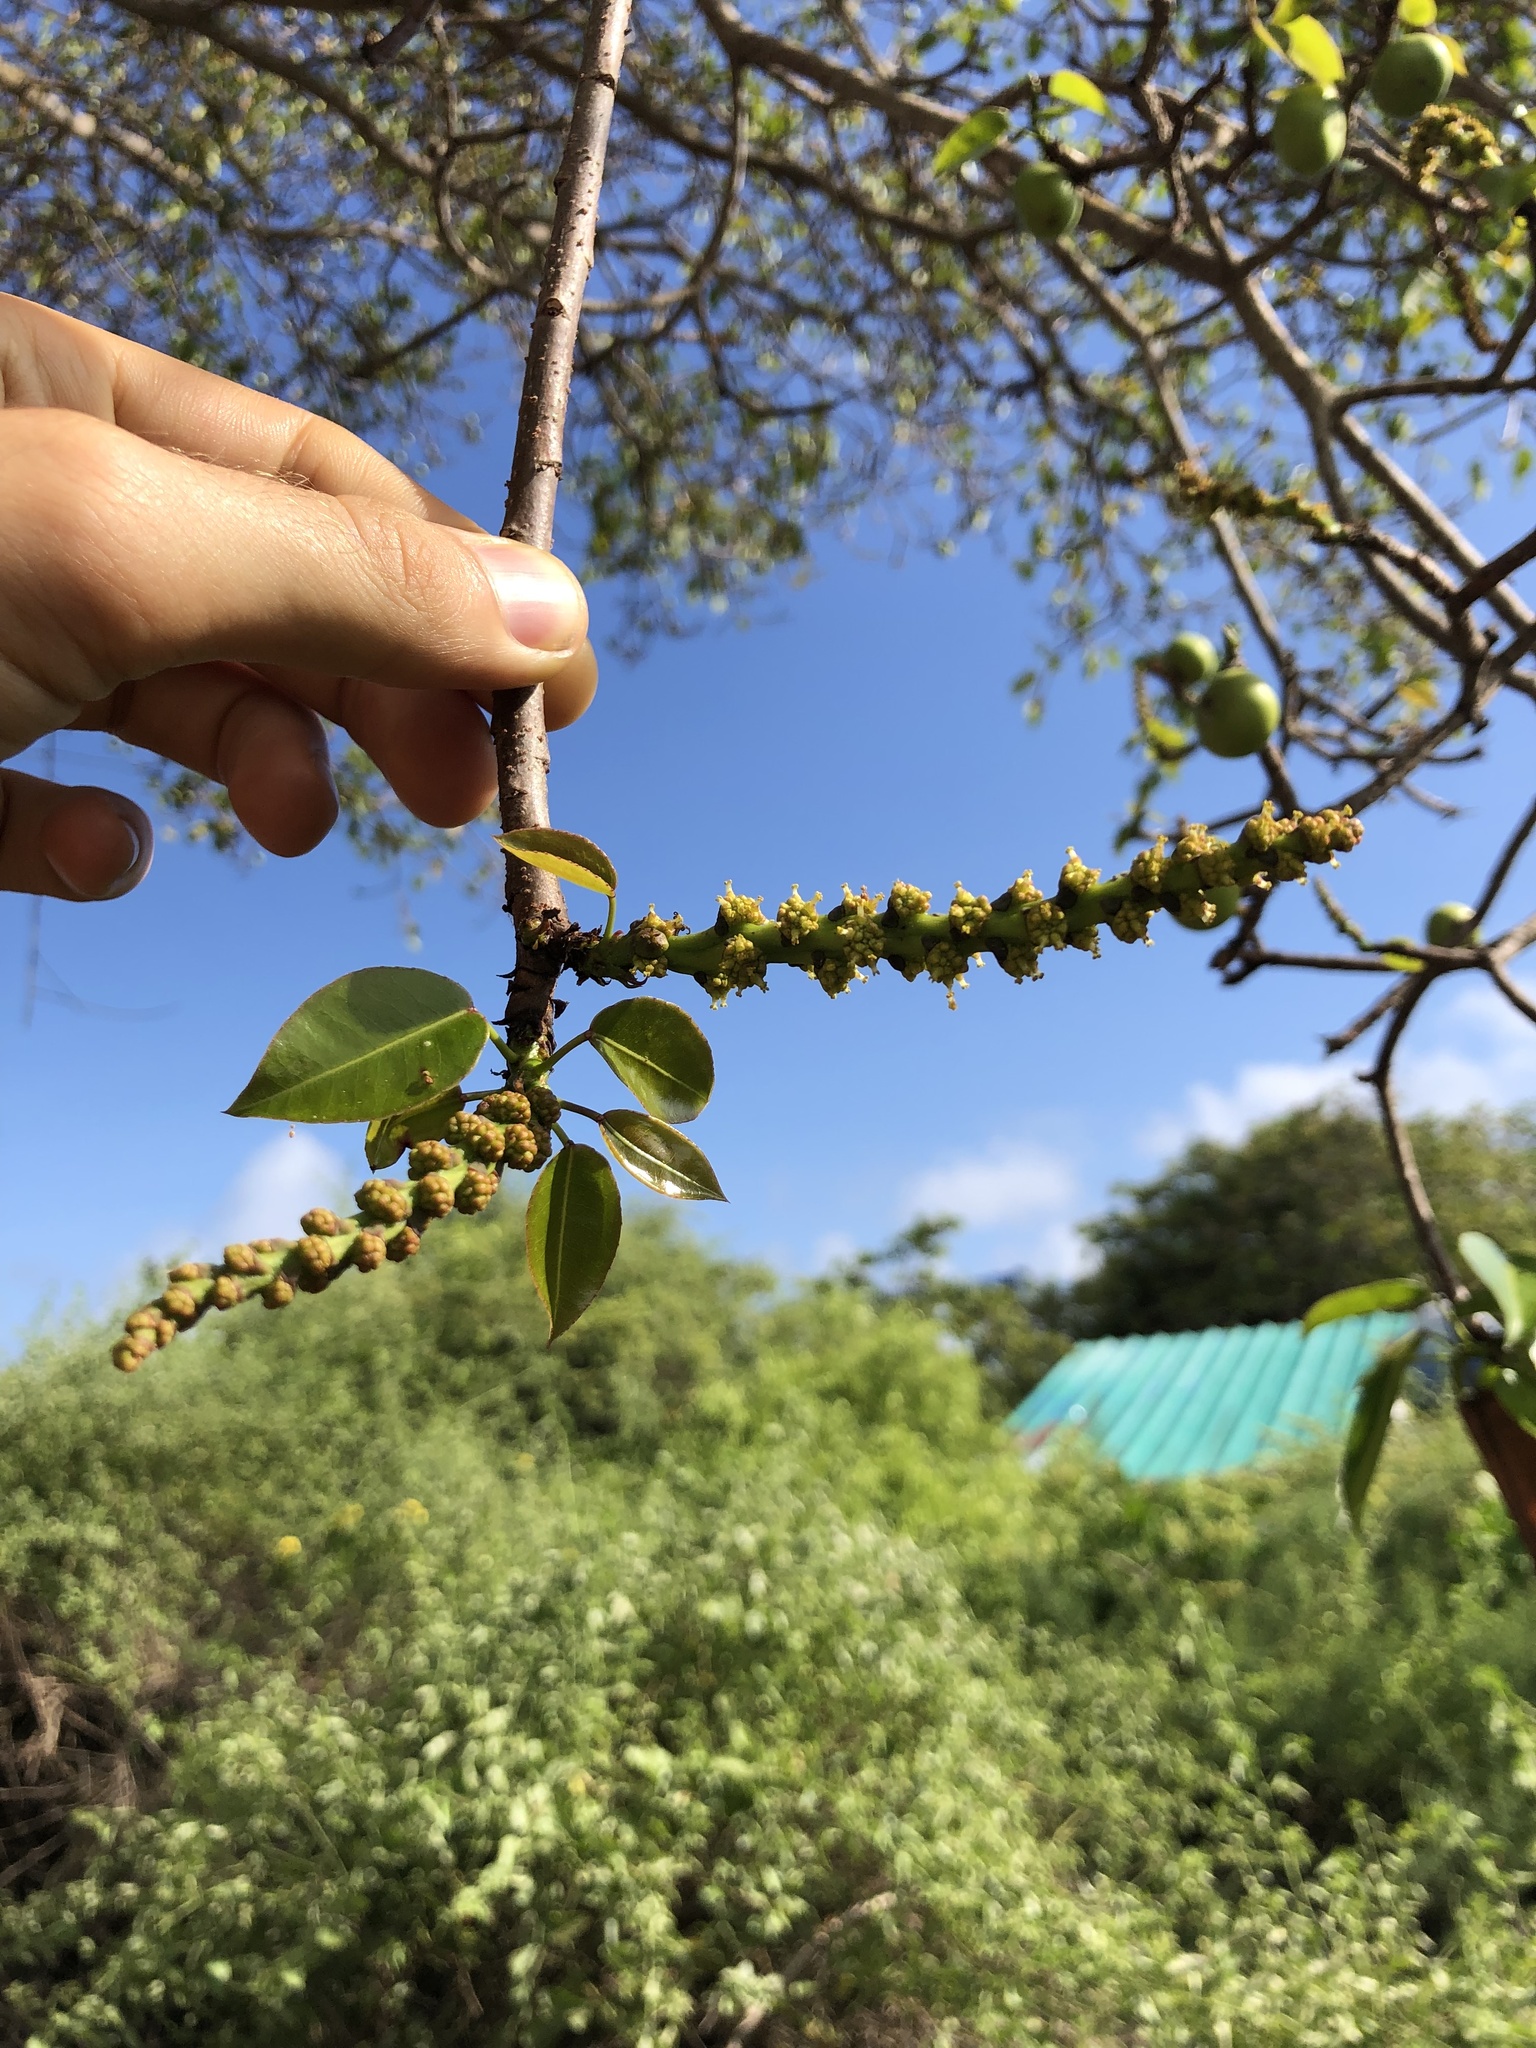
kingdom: Plantae
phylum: Tracheophyta
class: Magnoliopsida
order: Malpighiales
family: Euphorbiaceae
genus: Hippomane
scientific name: Hippomane mancinella
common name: Manchineel
